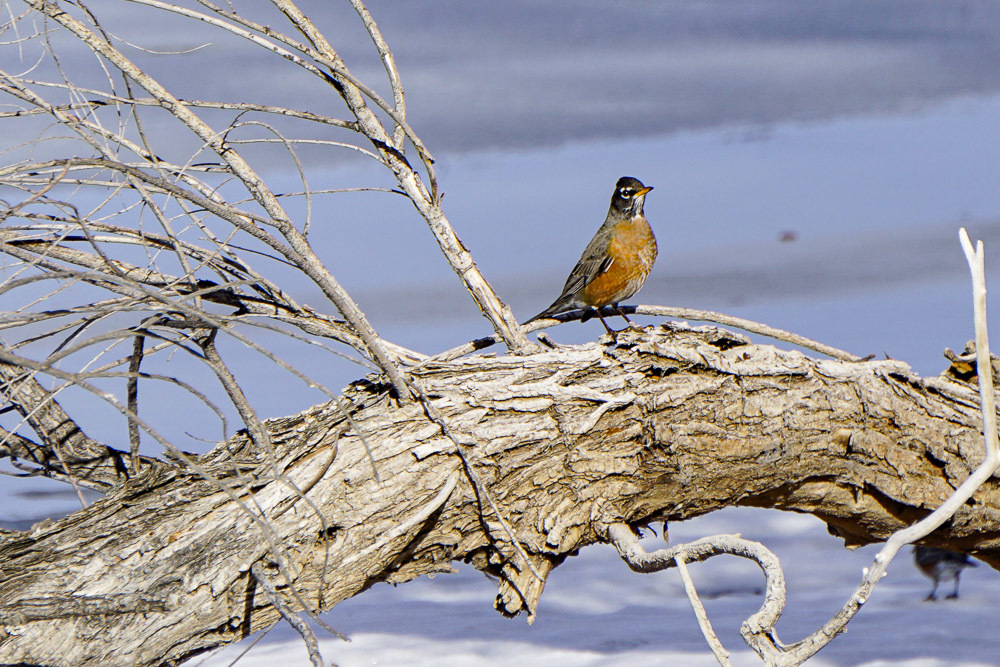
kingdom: Animalia
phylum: Chordata
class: Aves
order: Passeriformes
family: Turdidae
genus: Turdus
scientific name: Turdus migratorius
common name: American robin
